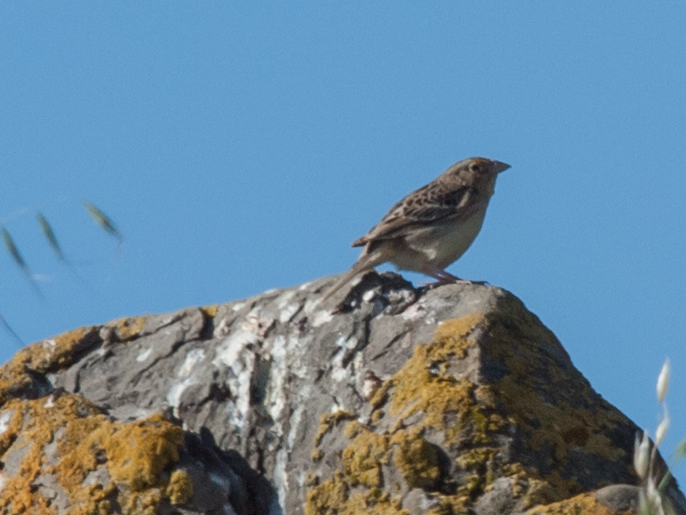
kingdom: Animalia
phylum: Chordata
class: Aves
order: Passeriformes
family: Passerellidae
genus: Ammodramus
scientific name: Ammodramus savannarum
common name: Grasshopper sparrow
